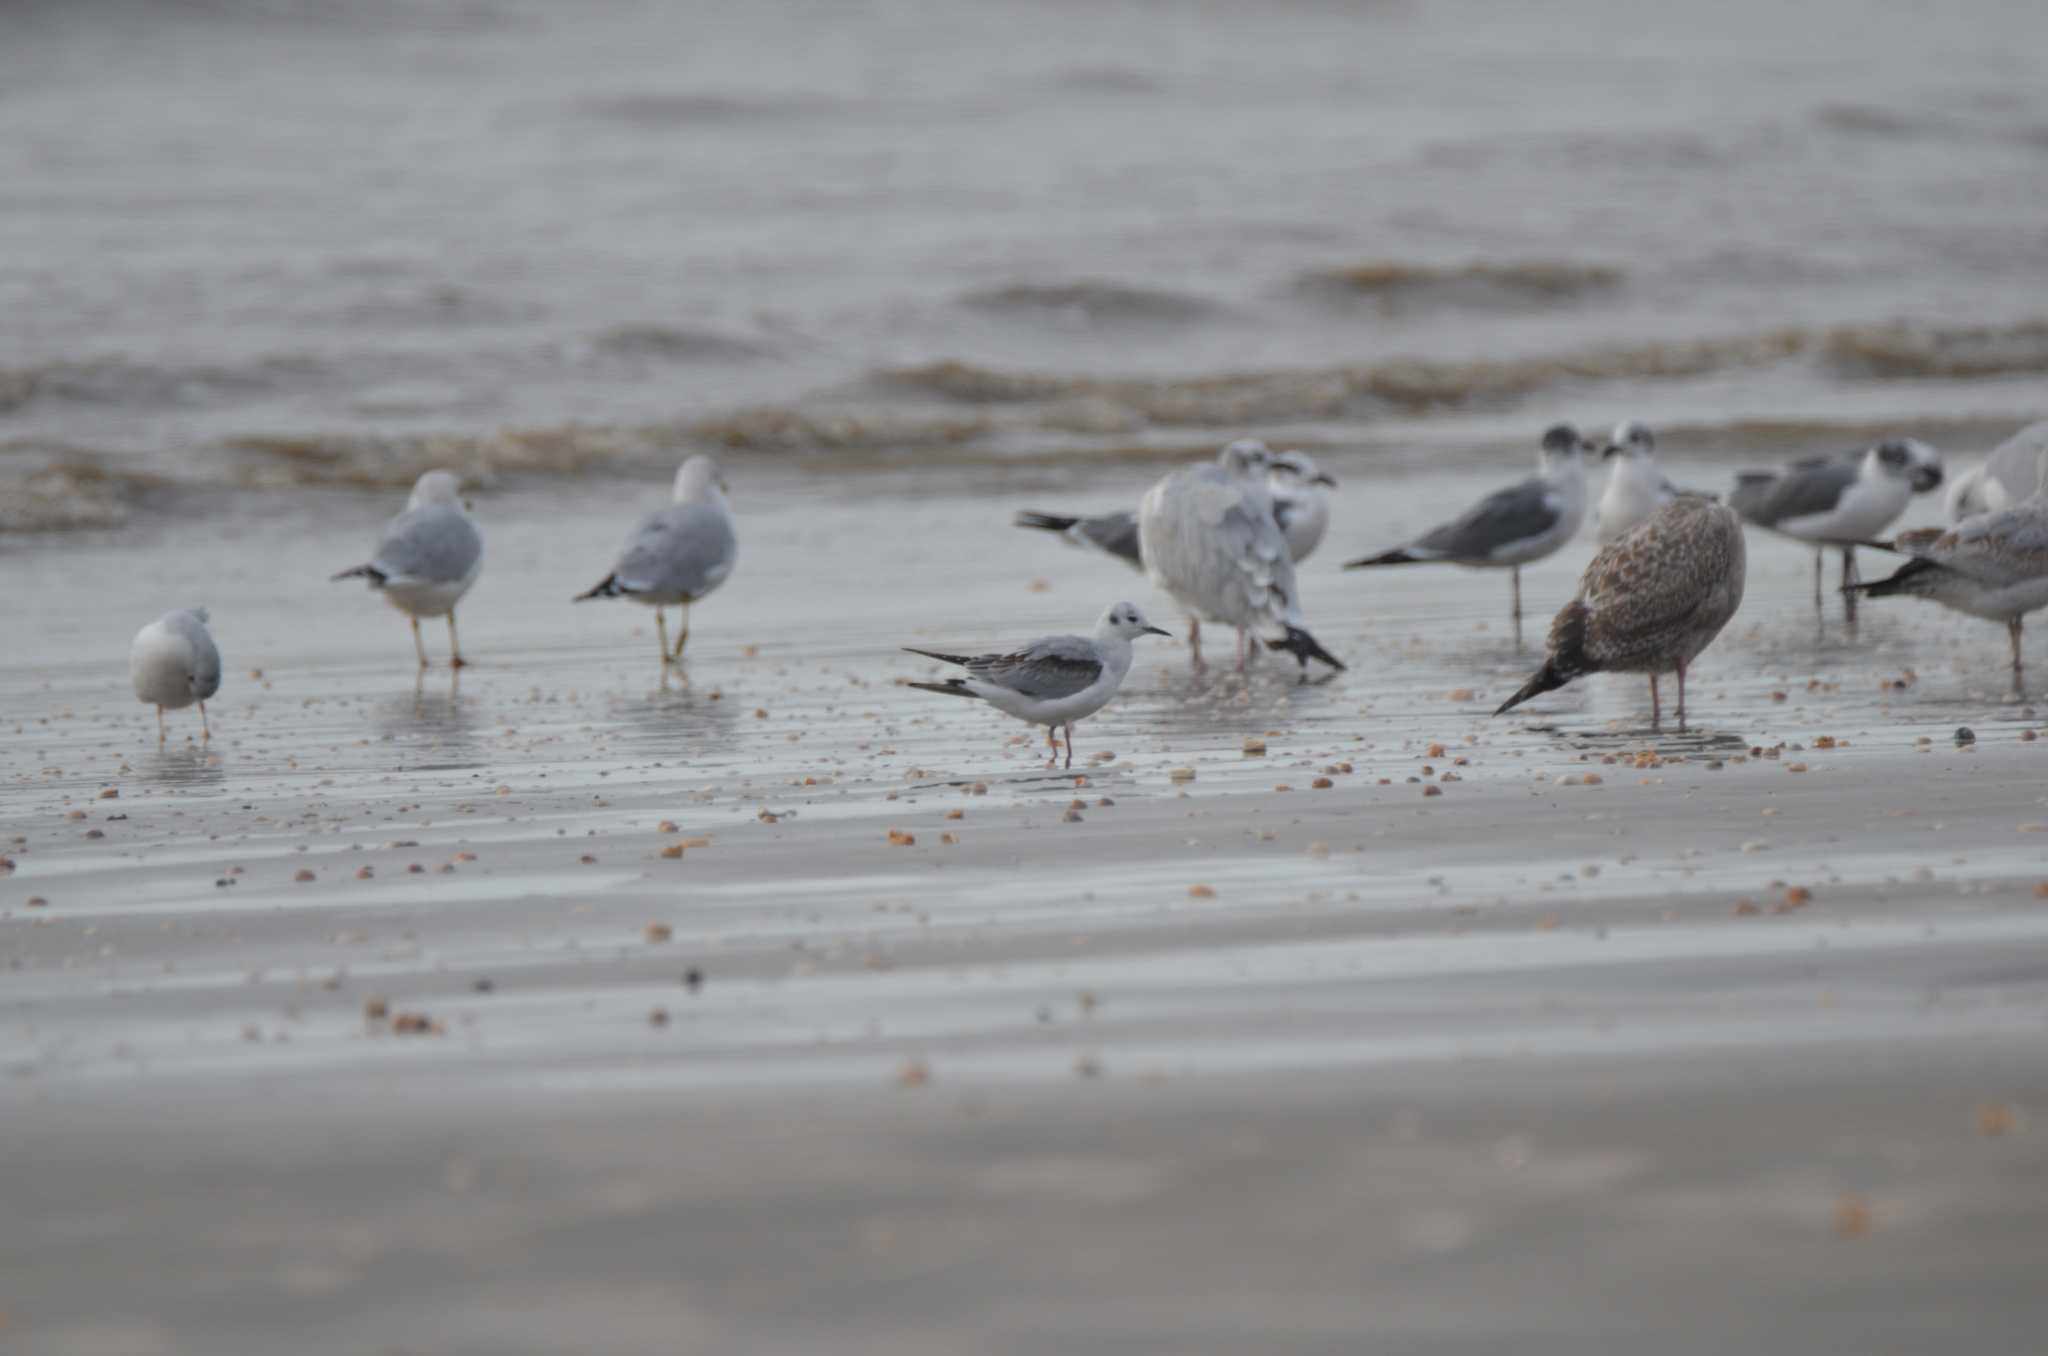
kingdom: Animalia
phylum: Chordata
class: Aves
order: Charadriiformes
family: Laridae
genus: Chroicocephalus
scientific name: Chroicocephalus philadelphia
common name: Bonaparte's gull
